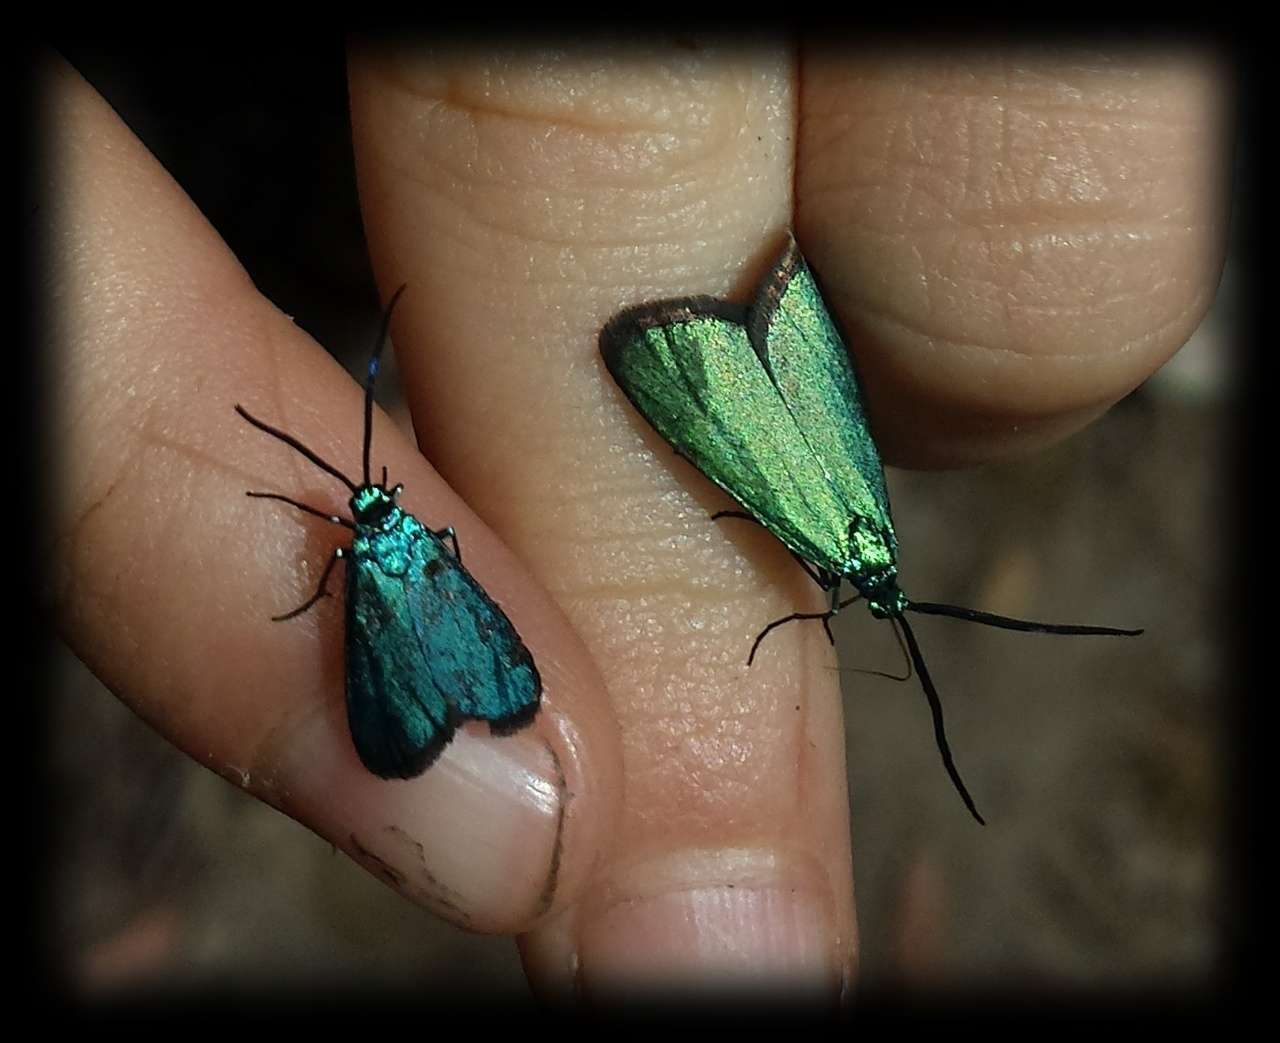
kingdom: Animalia
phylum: Arthropoda
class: Insecta
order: Lepidoptera
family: Zygaenidae
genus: Pollanisus
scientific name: Pollanisus viridipulverulenta
